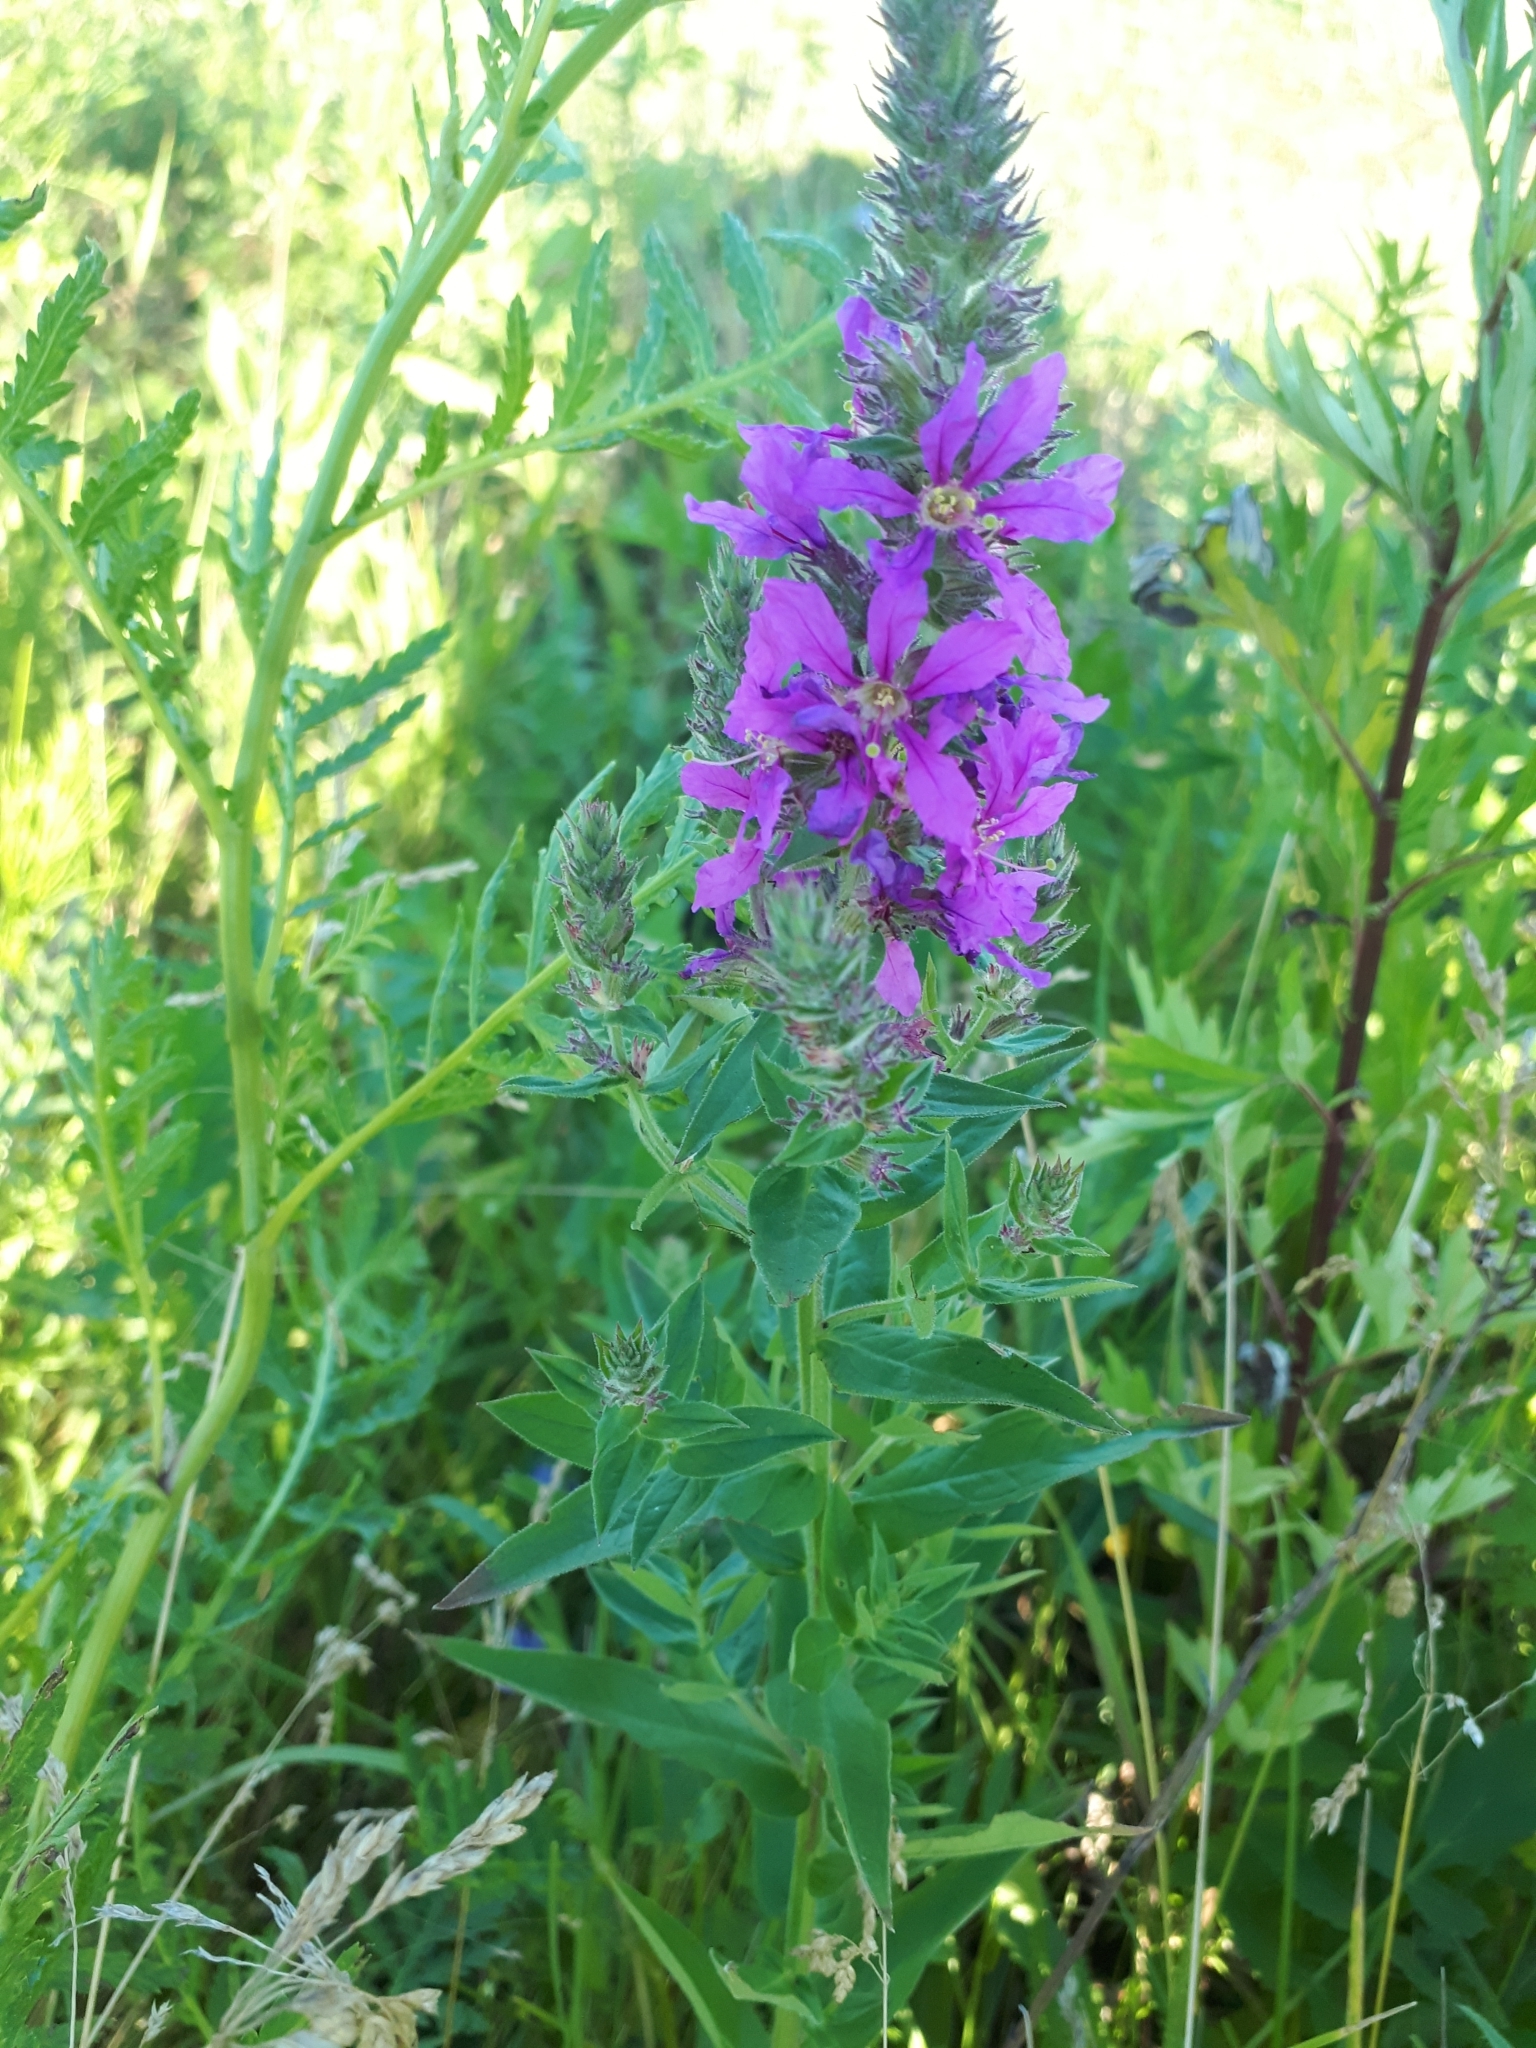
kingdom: Plantae
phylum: Tracheophyta
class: Magnoliopsida
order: Myrtales
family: Lythraceae
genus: Lythrum
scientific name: Lythrum salicaria
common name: Purple loosestrife
